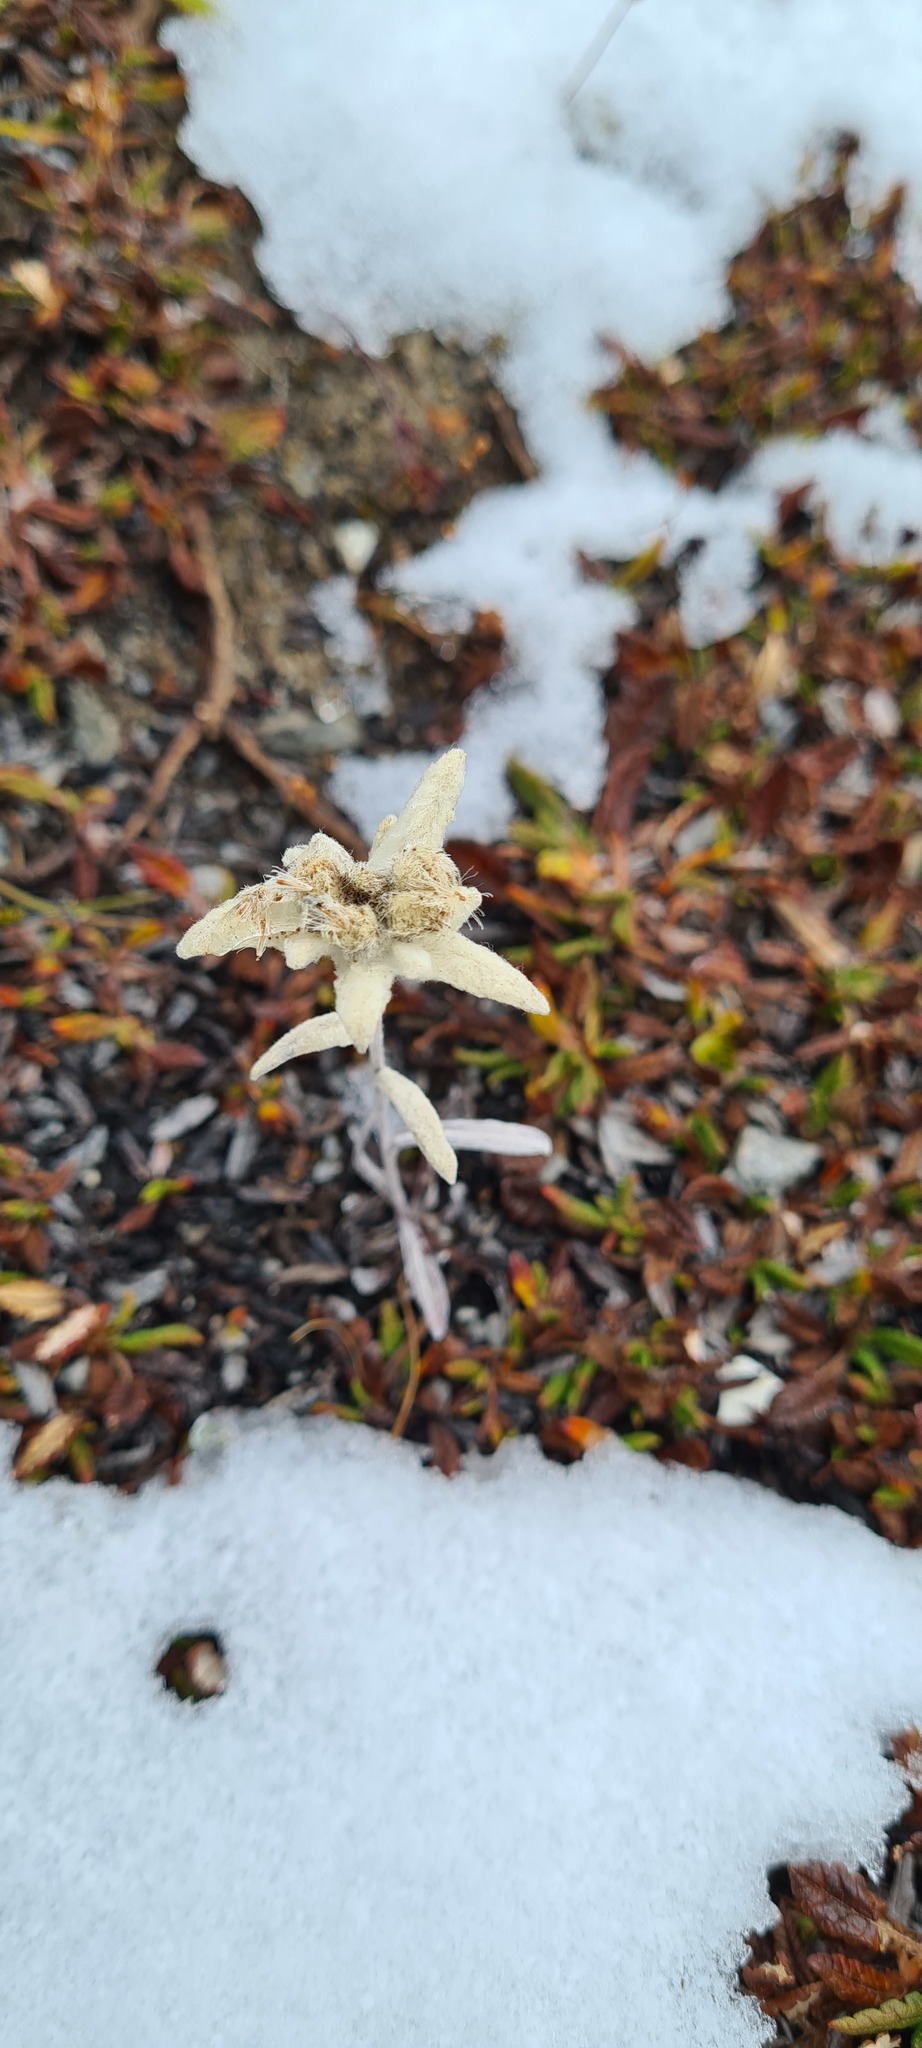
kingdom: Plantae
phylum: Tracheophyta
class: Magnoliopsida
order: Asterales
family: Asteraceae
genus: Leontopodium
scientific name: Leontopodium nivale
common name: Edelweiss
